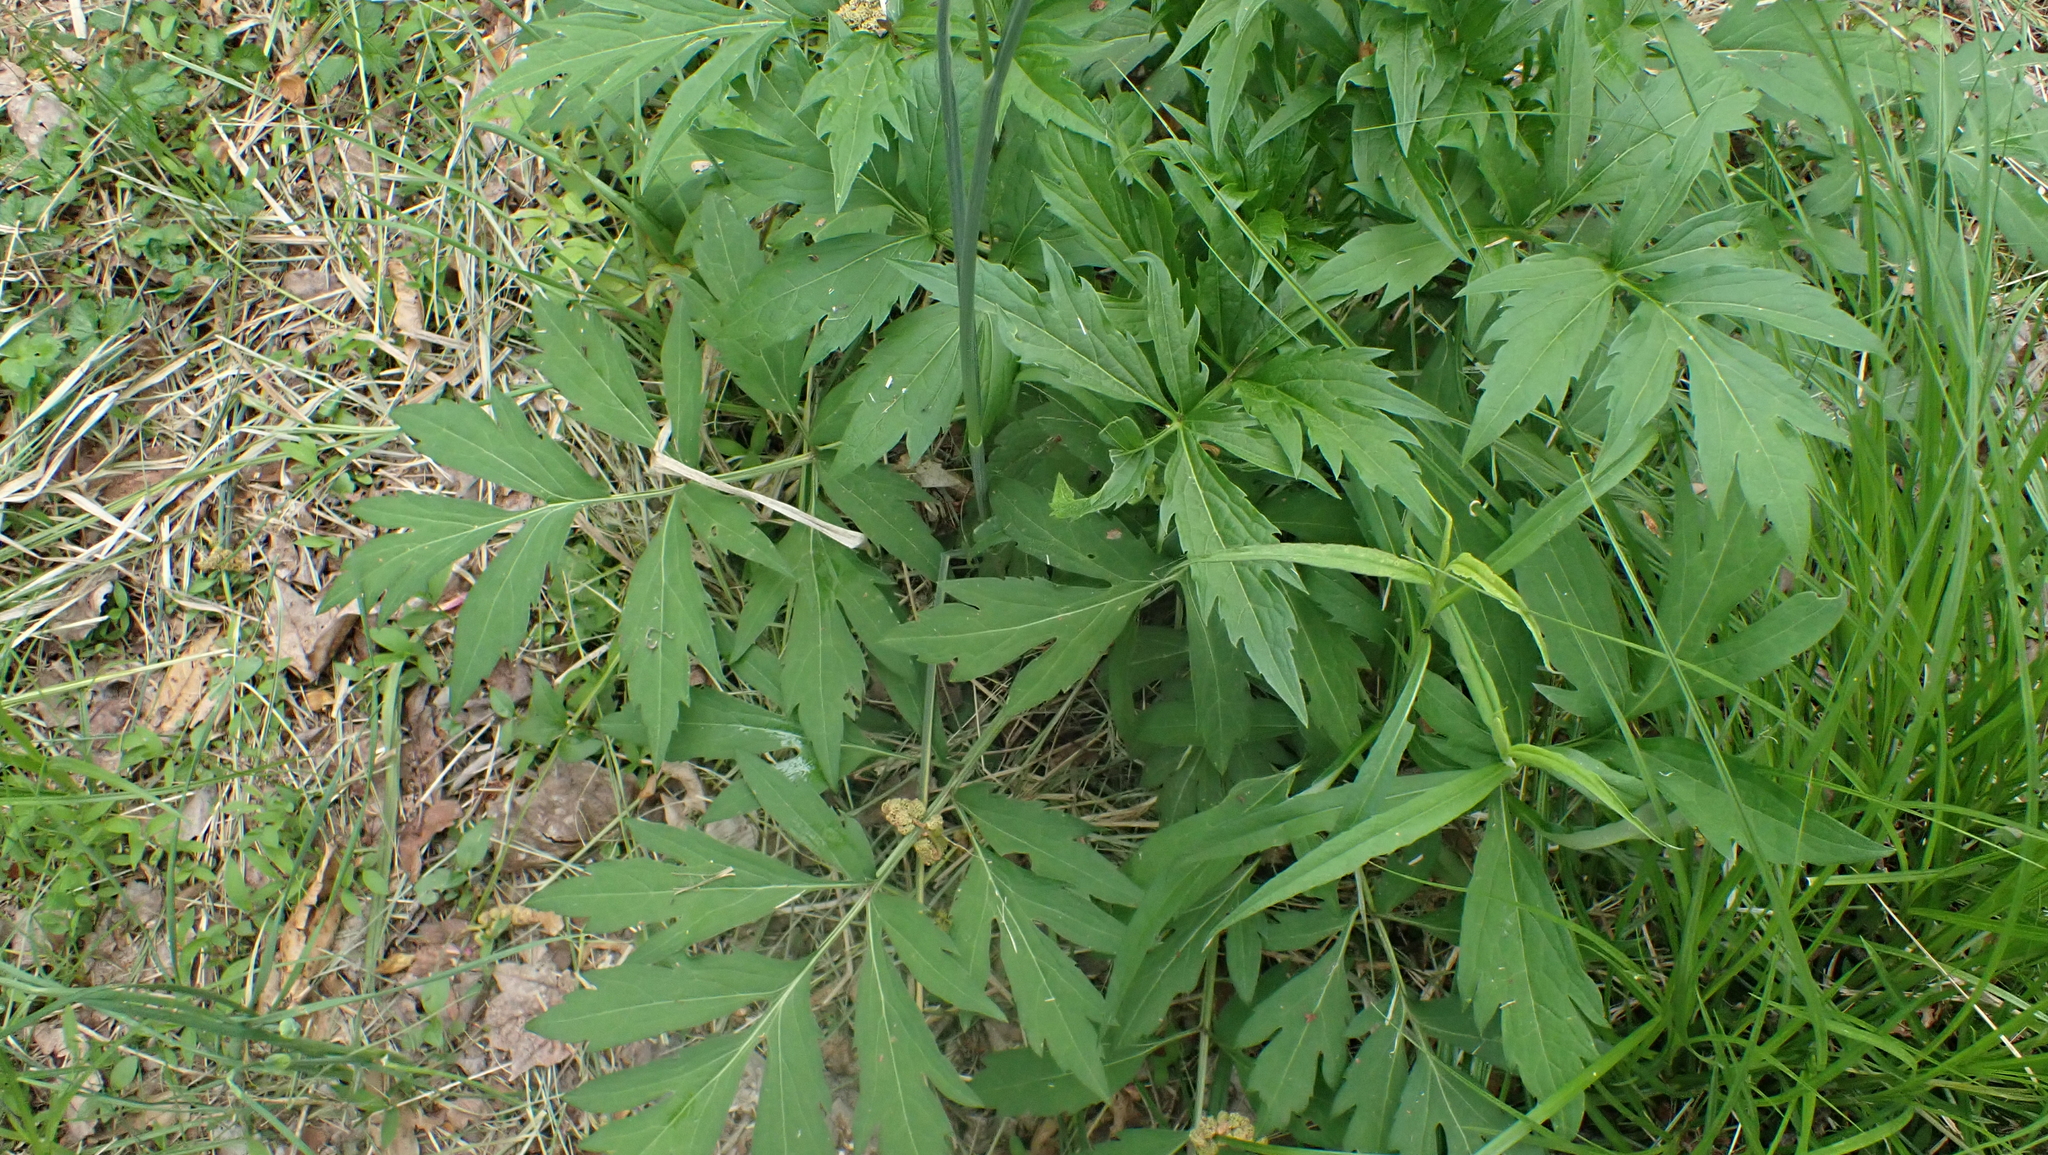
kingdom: Plantae
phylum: Tracheophyta
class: Magnoliopsida
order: Asterales
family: Asteraceae
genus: Rudbeckia
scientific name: Rudbeckia laciniata
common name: Coneflower
